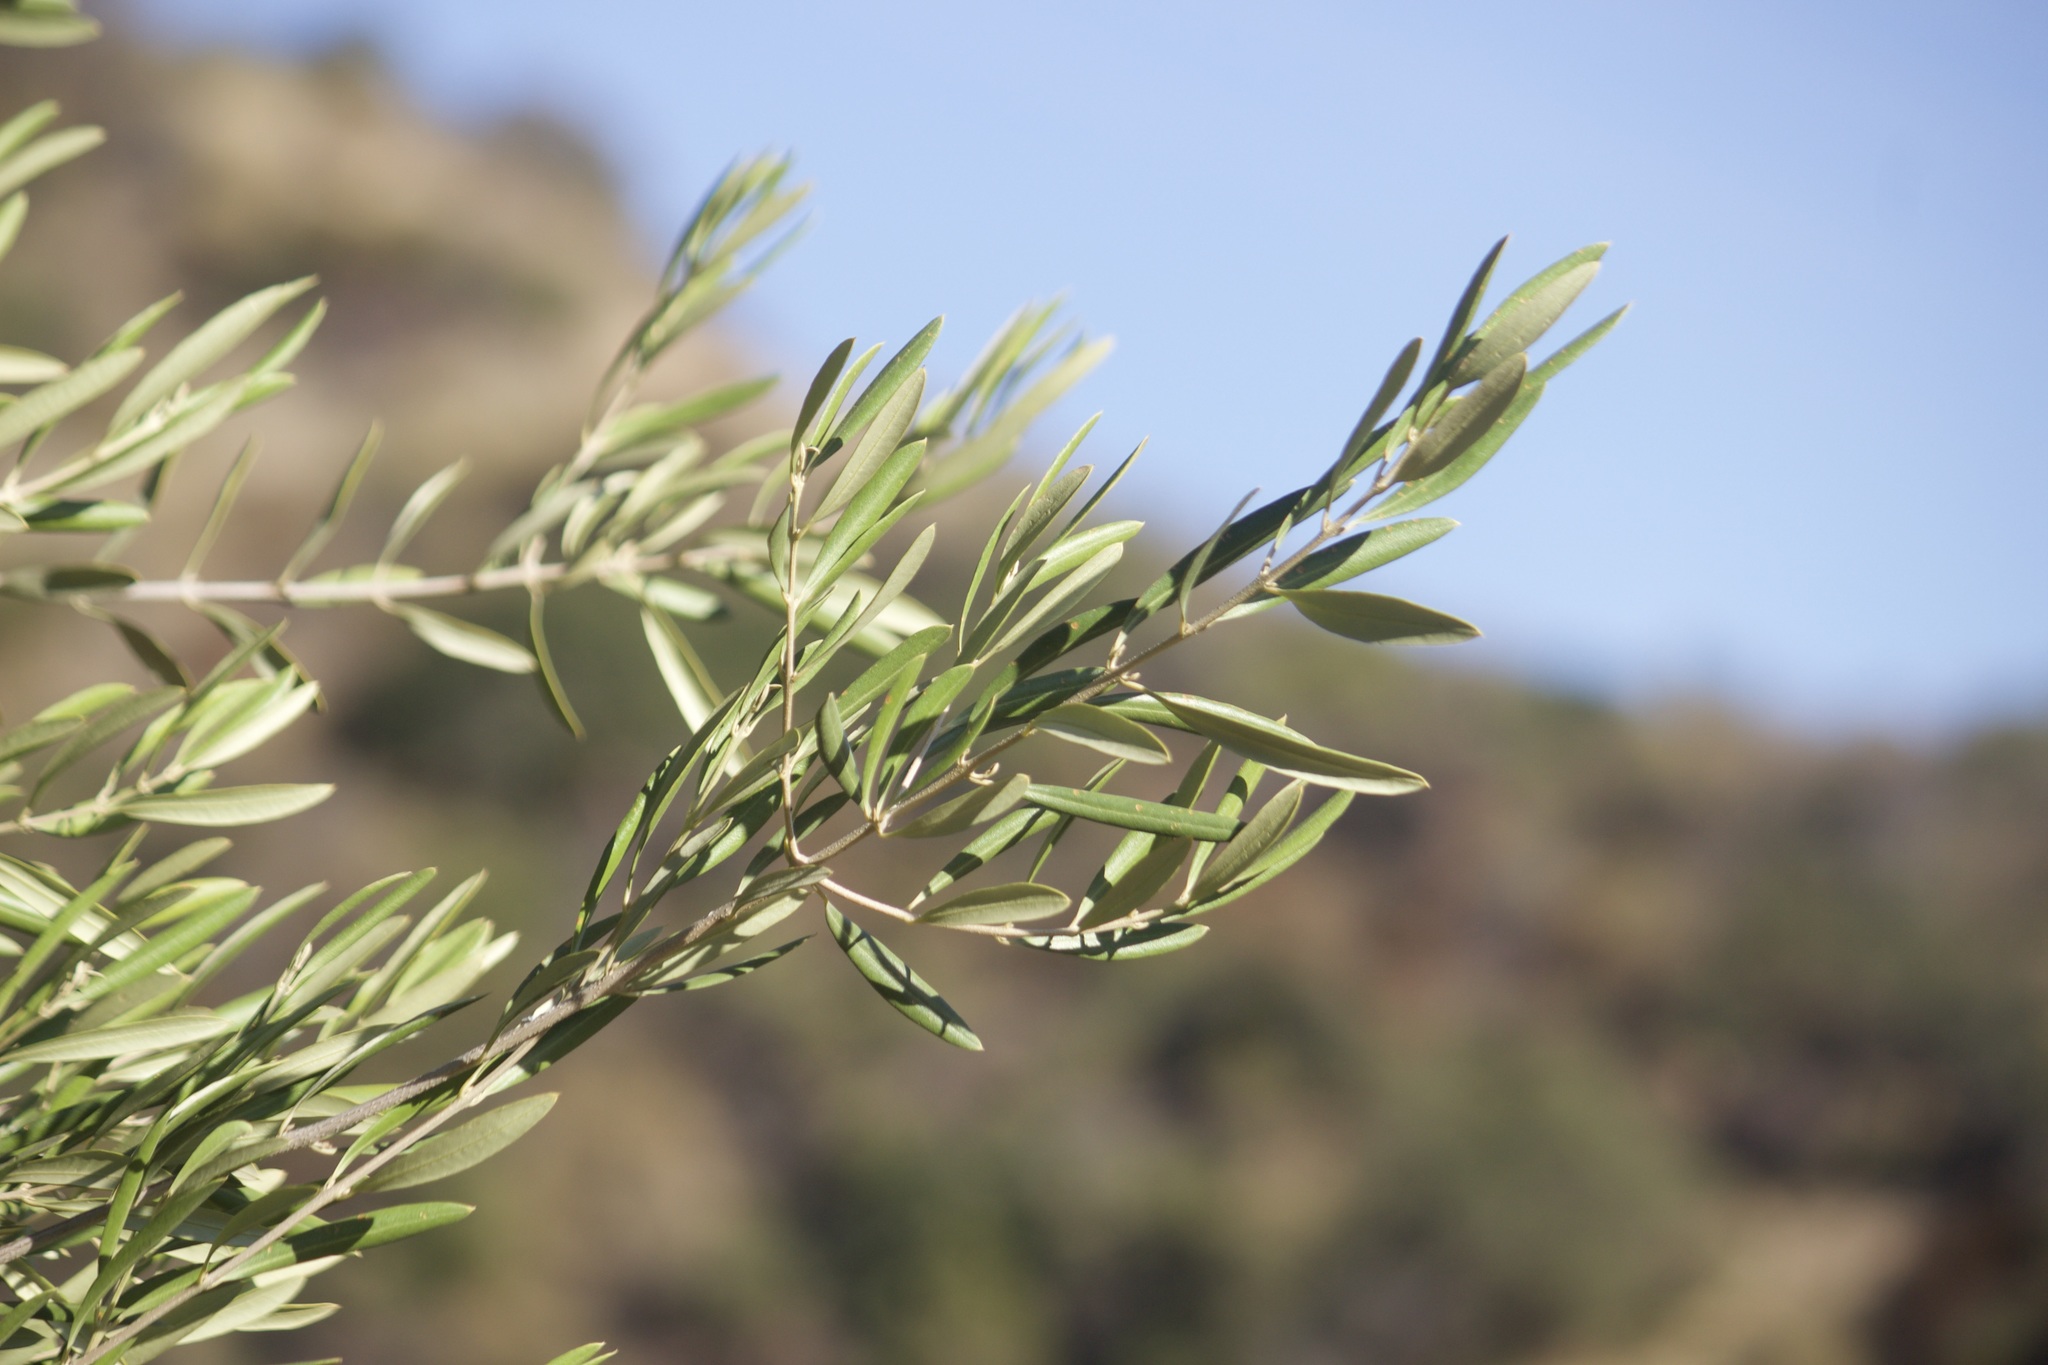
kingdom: Plantae
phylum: Tracheophyta
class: Magnoliopsida
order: Lamiales
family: Oleaceae
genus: Olea
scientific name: Olea europaea
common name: Olive
